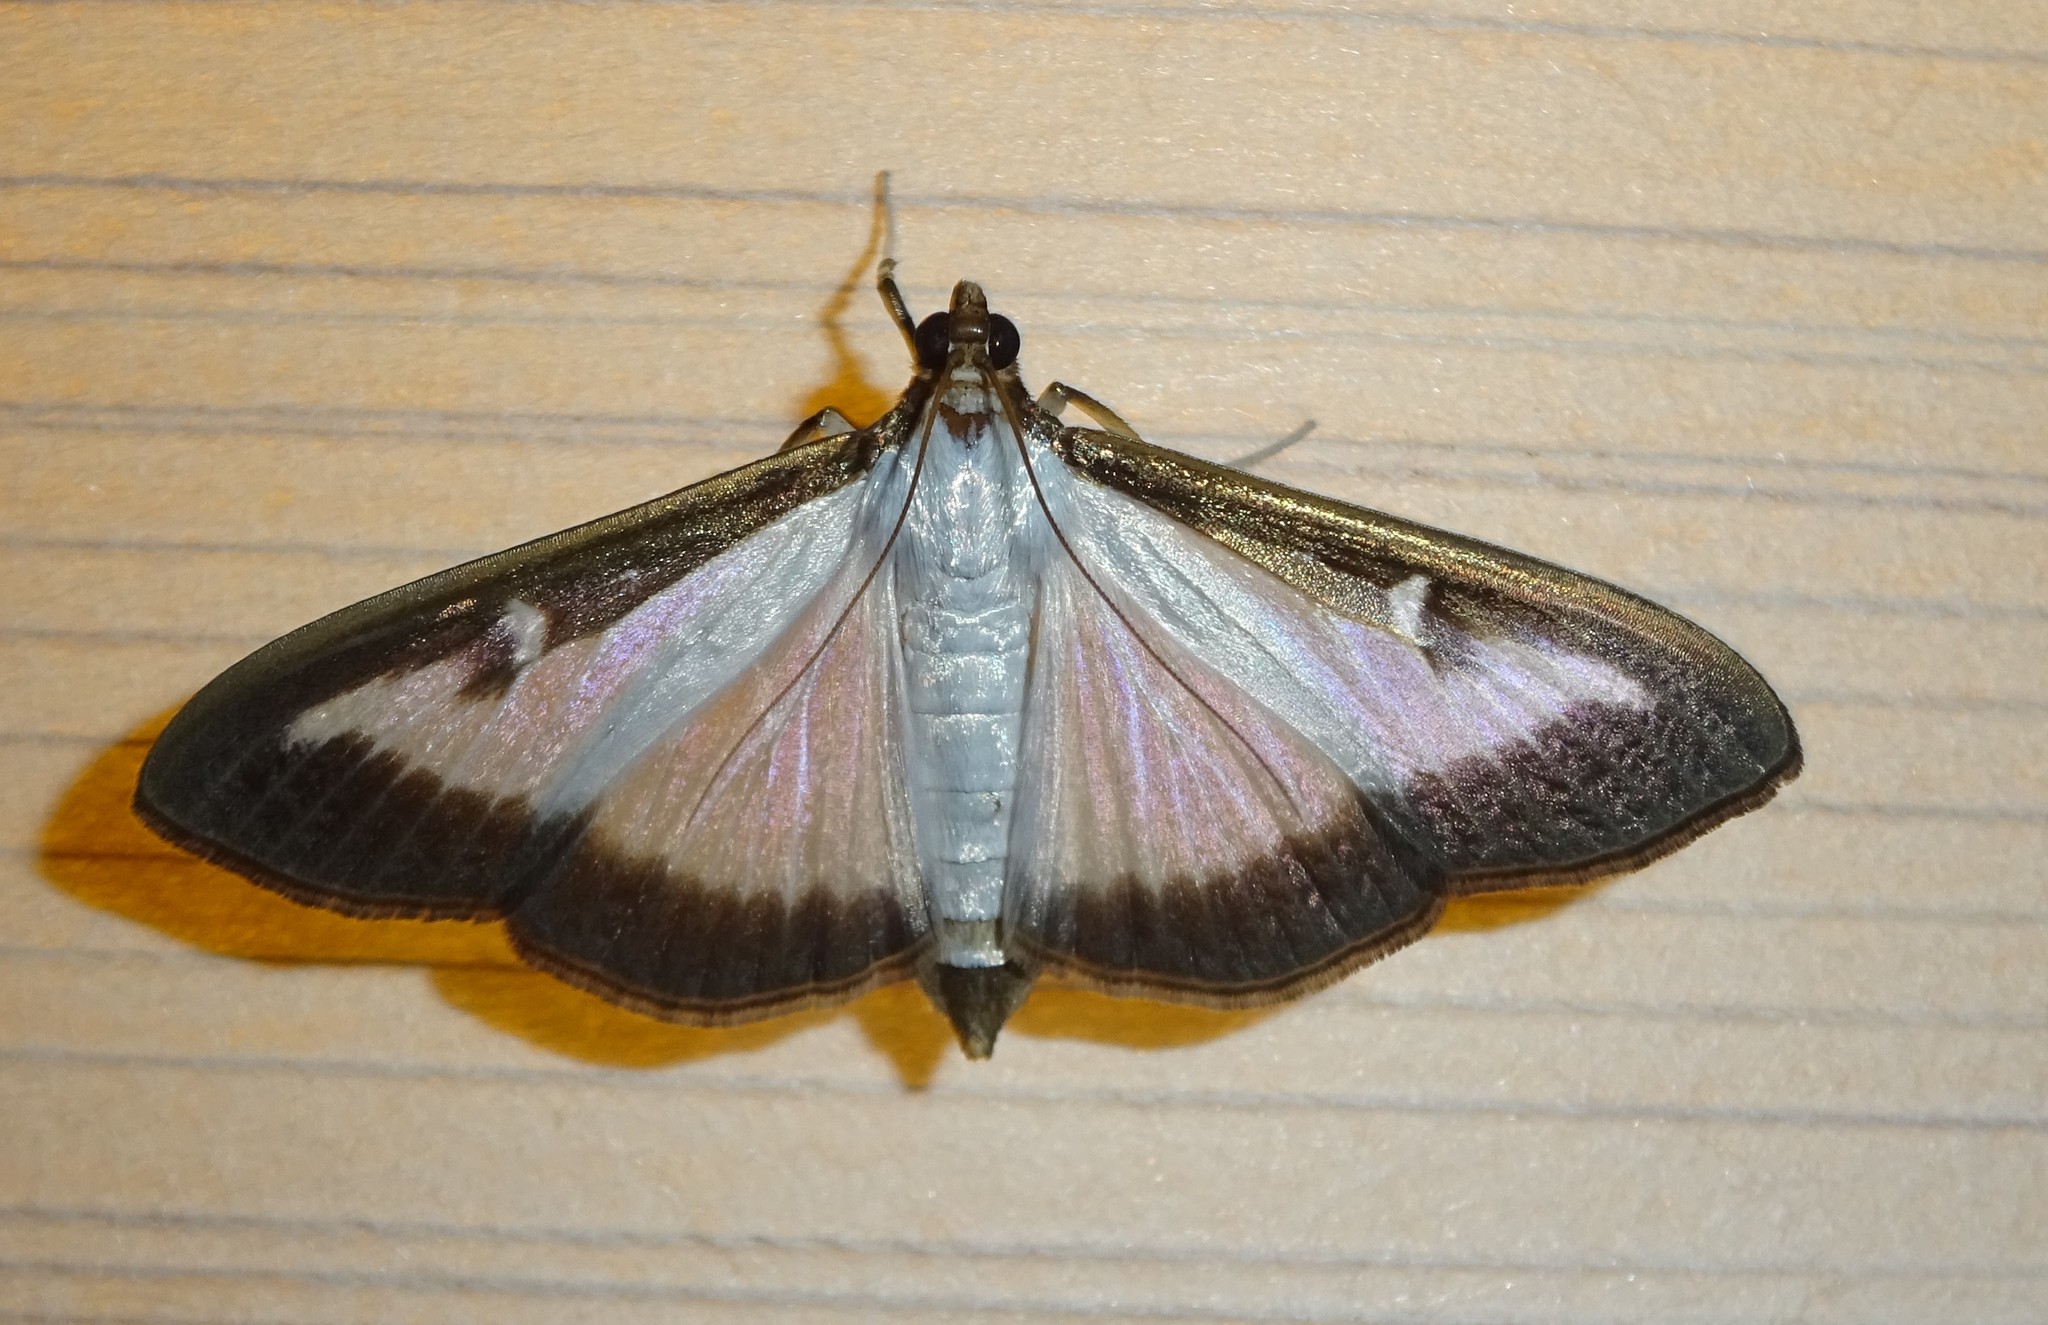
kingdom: Animalia
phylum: Arthropoda
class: Insecta
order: Lepidoptera
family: Crambidae
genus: Cydalima
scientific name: Cydalima perspectalis
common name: Box tree moth
